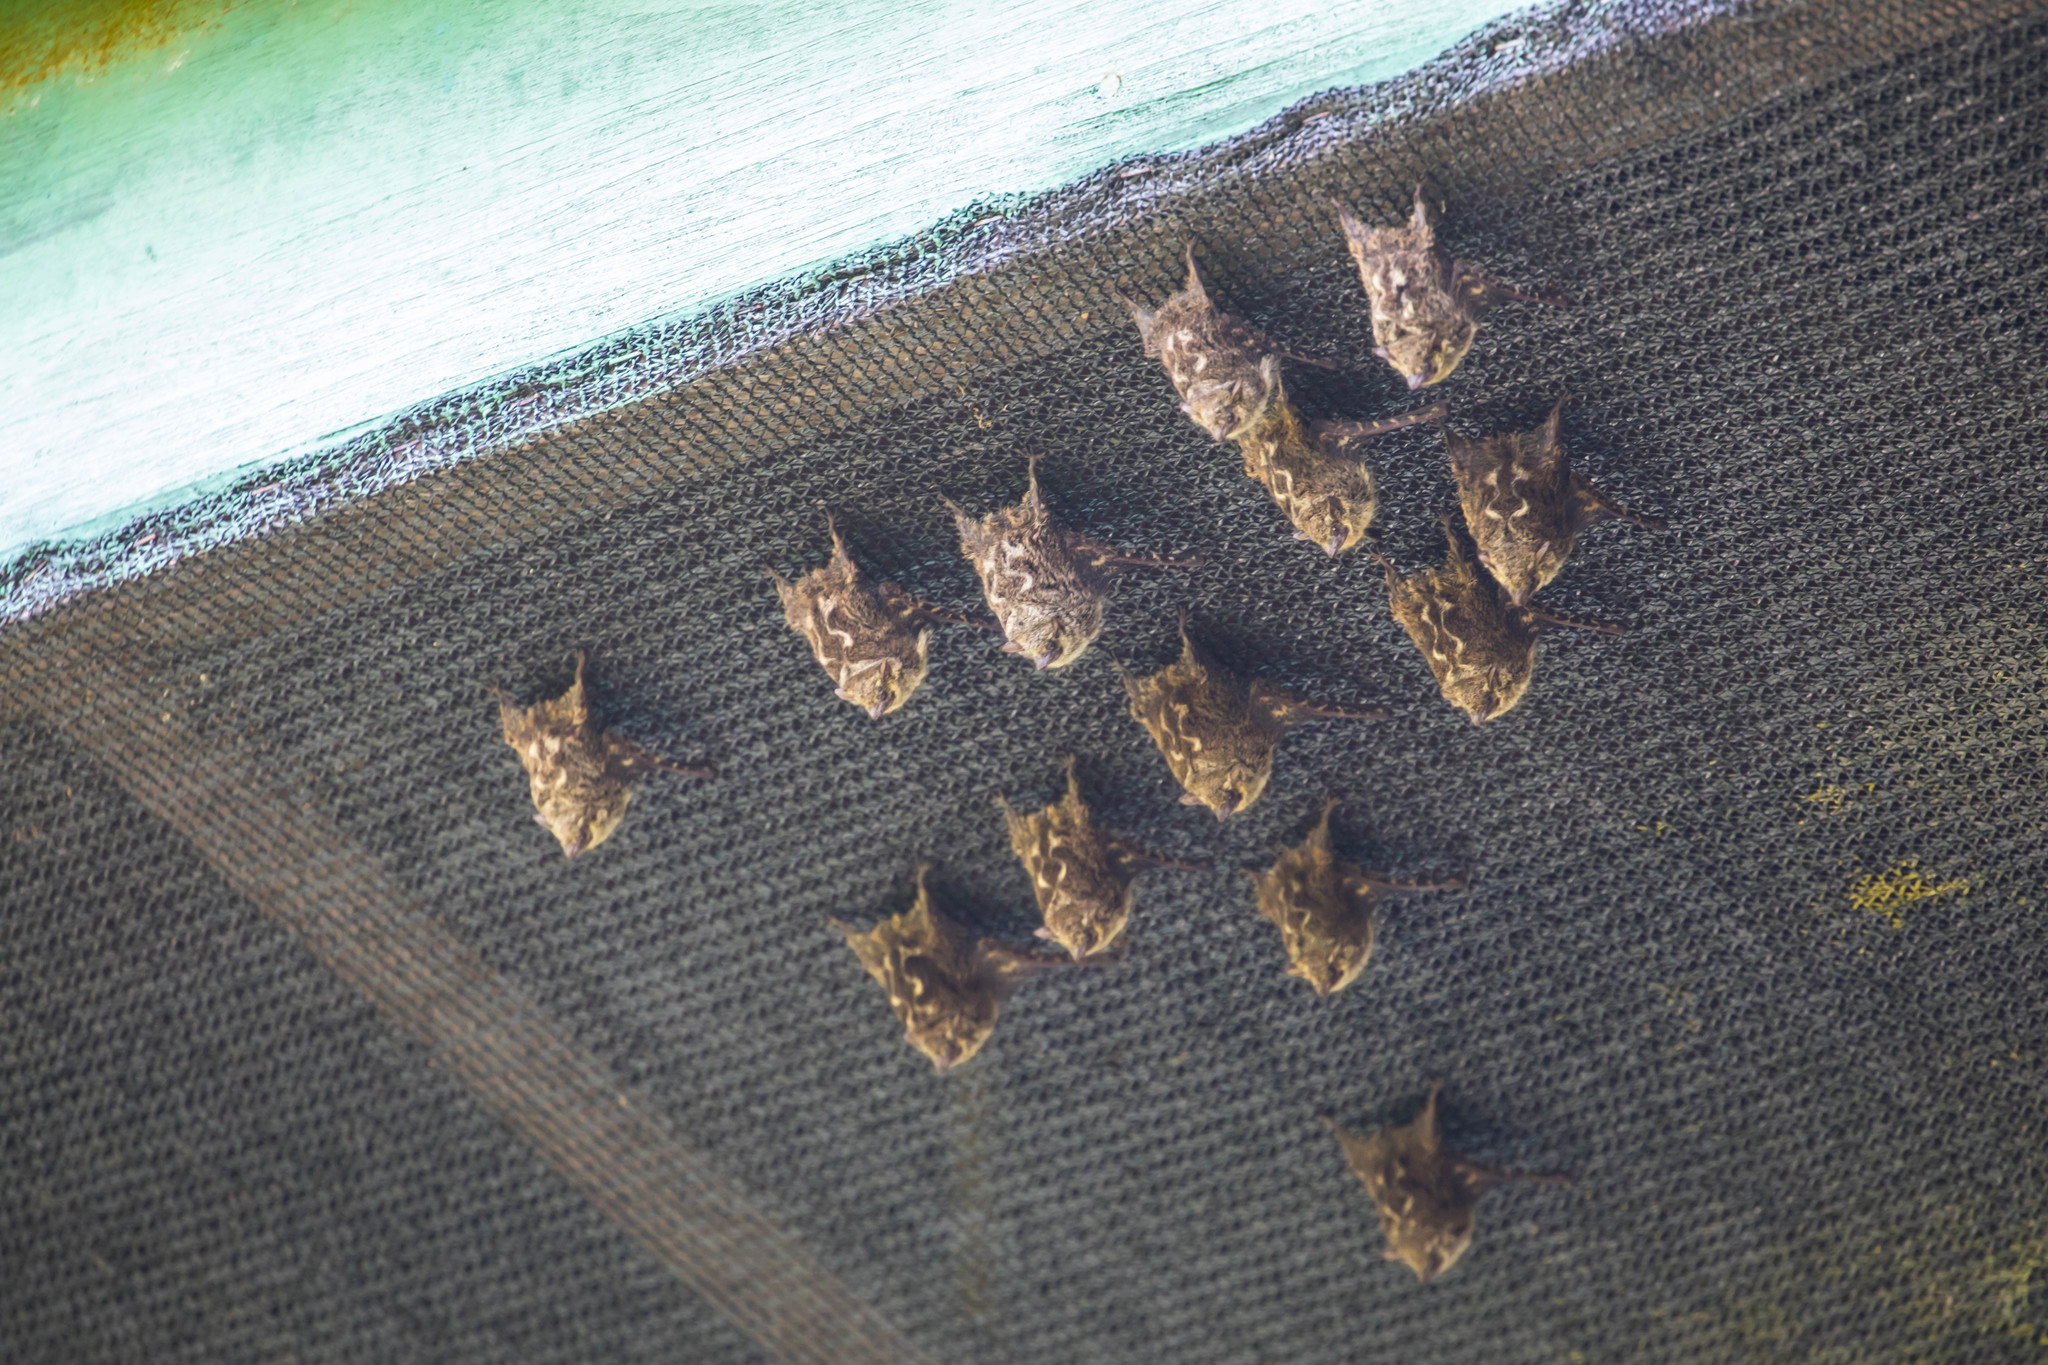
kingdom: Animalia
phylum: Chordata
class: Mammalia
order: Chiroptera
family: Emballonuridae
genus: Rhynchonycteris
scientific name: Rhynchonycteris naso
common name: Proboscis bat
